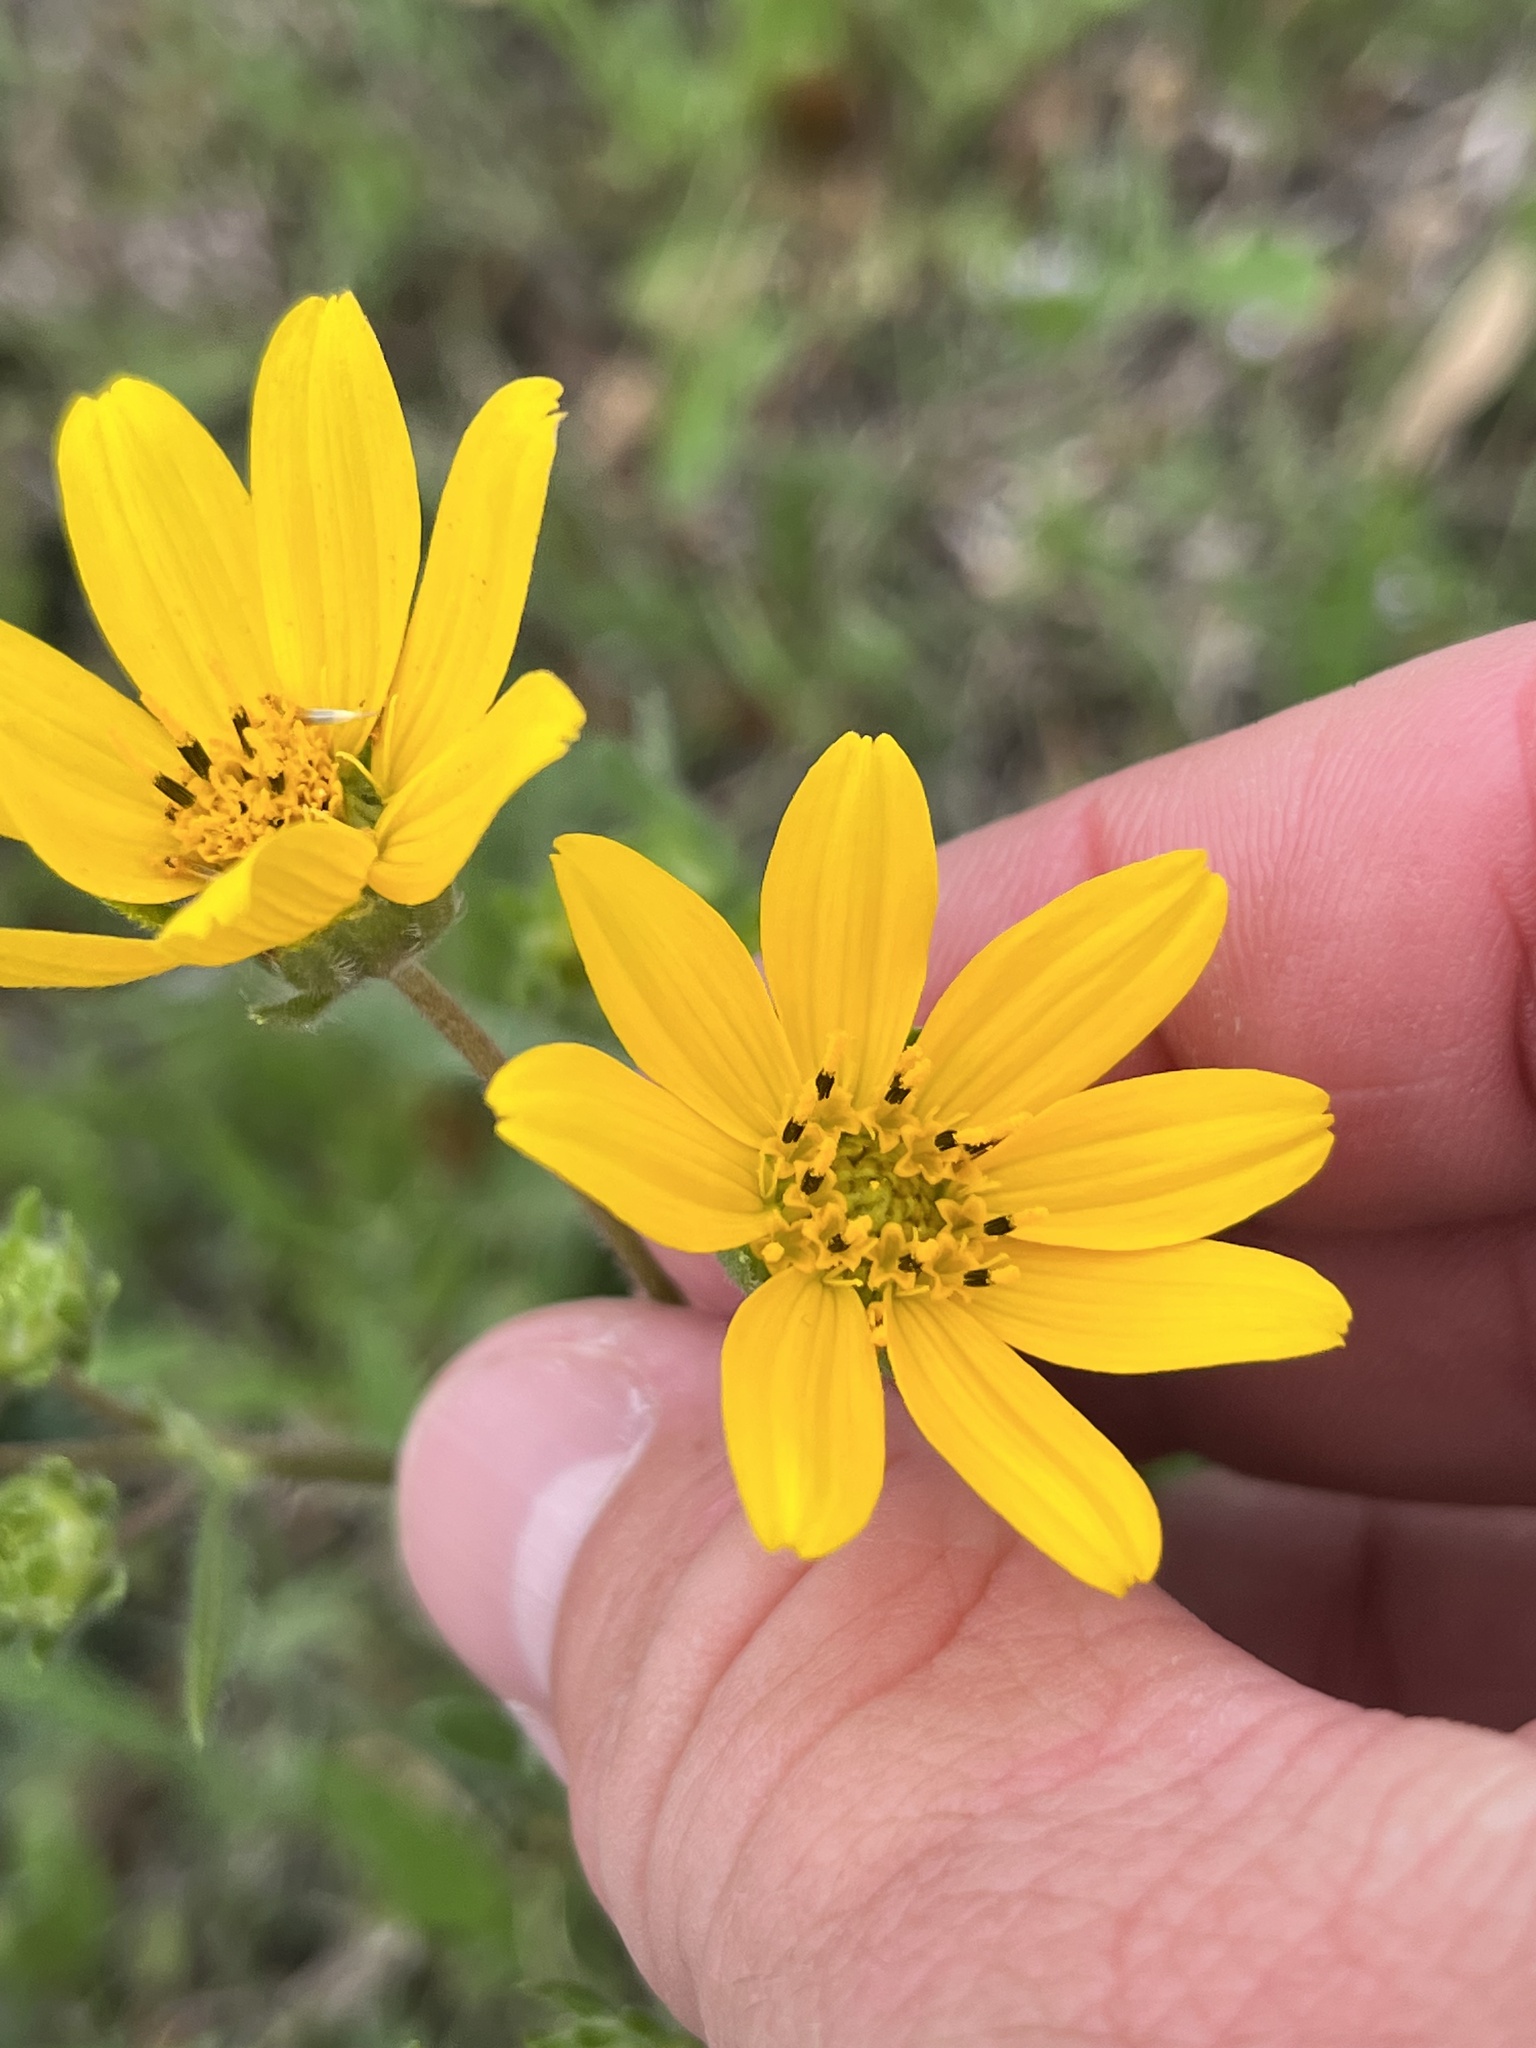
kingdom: Plantae
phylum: Tracheophyta
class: Magnoliopsida
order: Asterales
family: Asteraceae
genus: Engelmannia
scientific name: Engelmannia peristenia
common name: Engelmann's daisy
